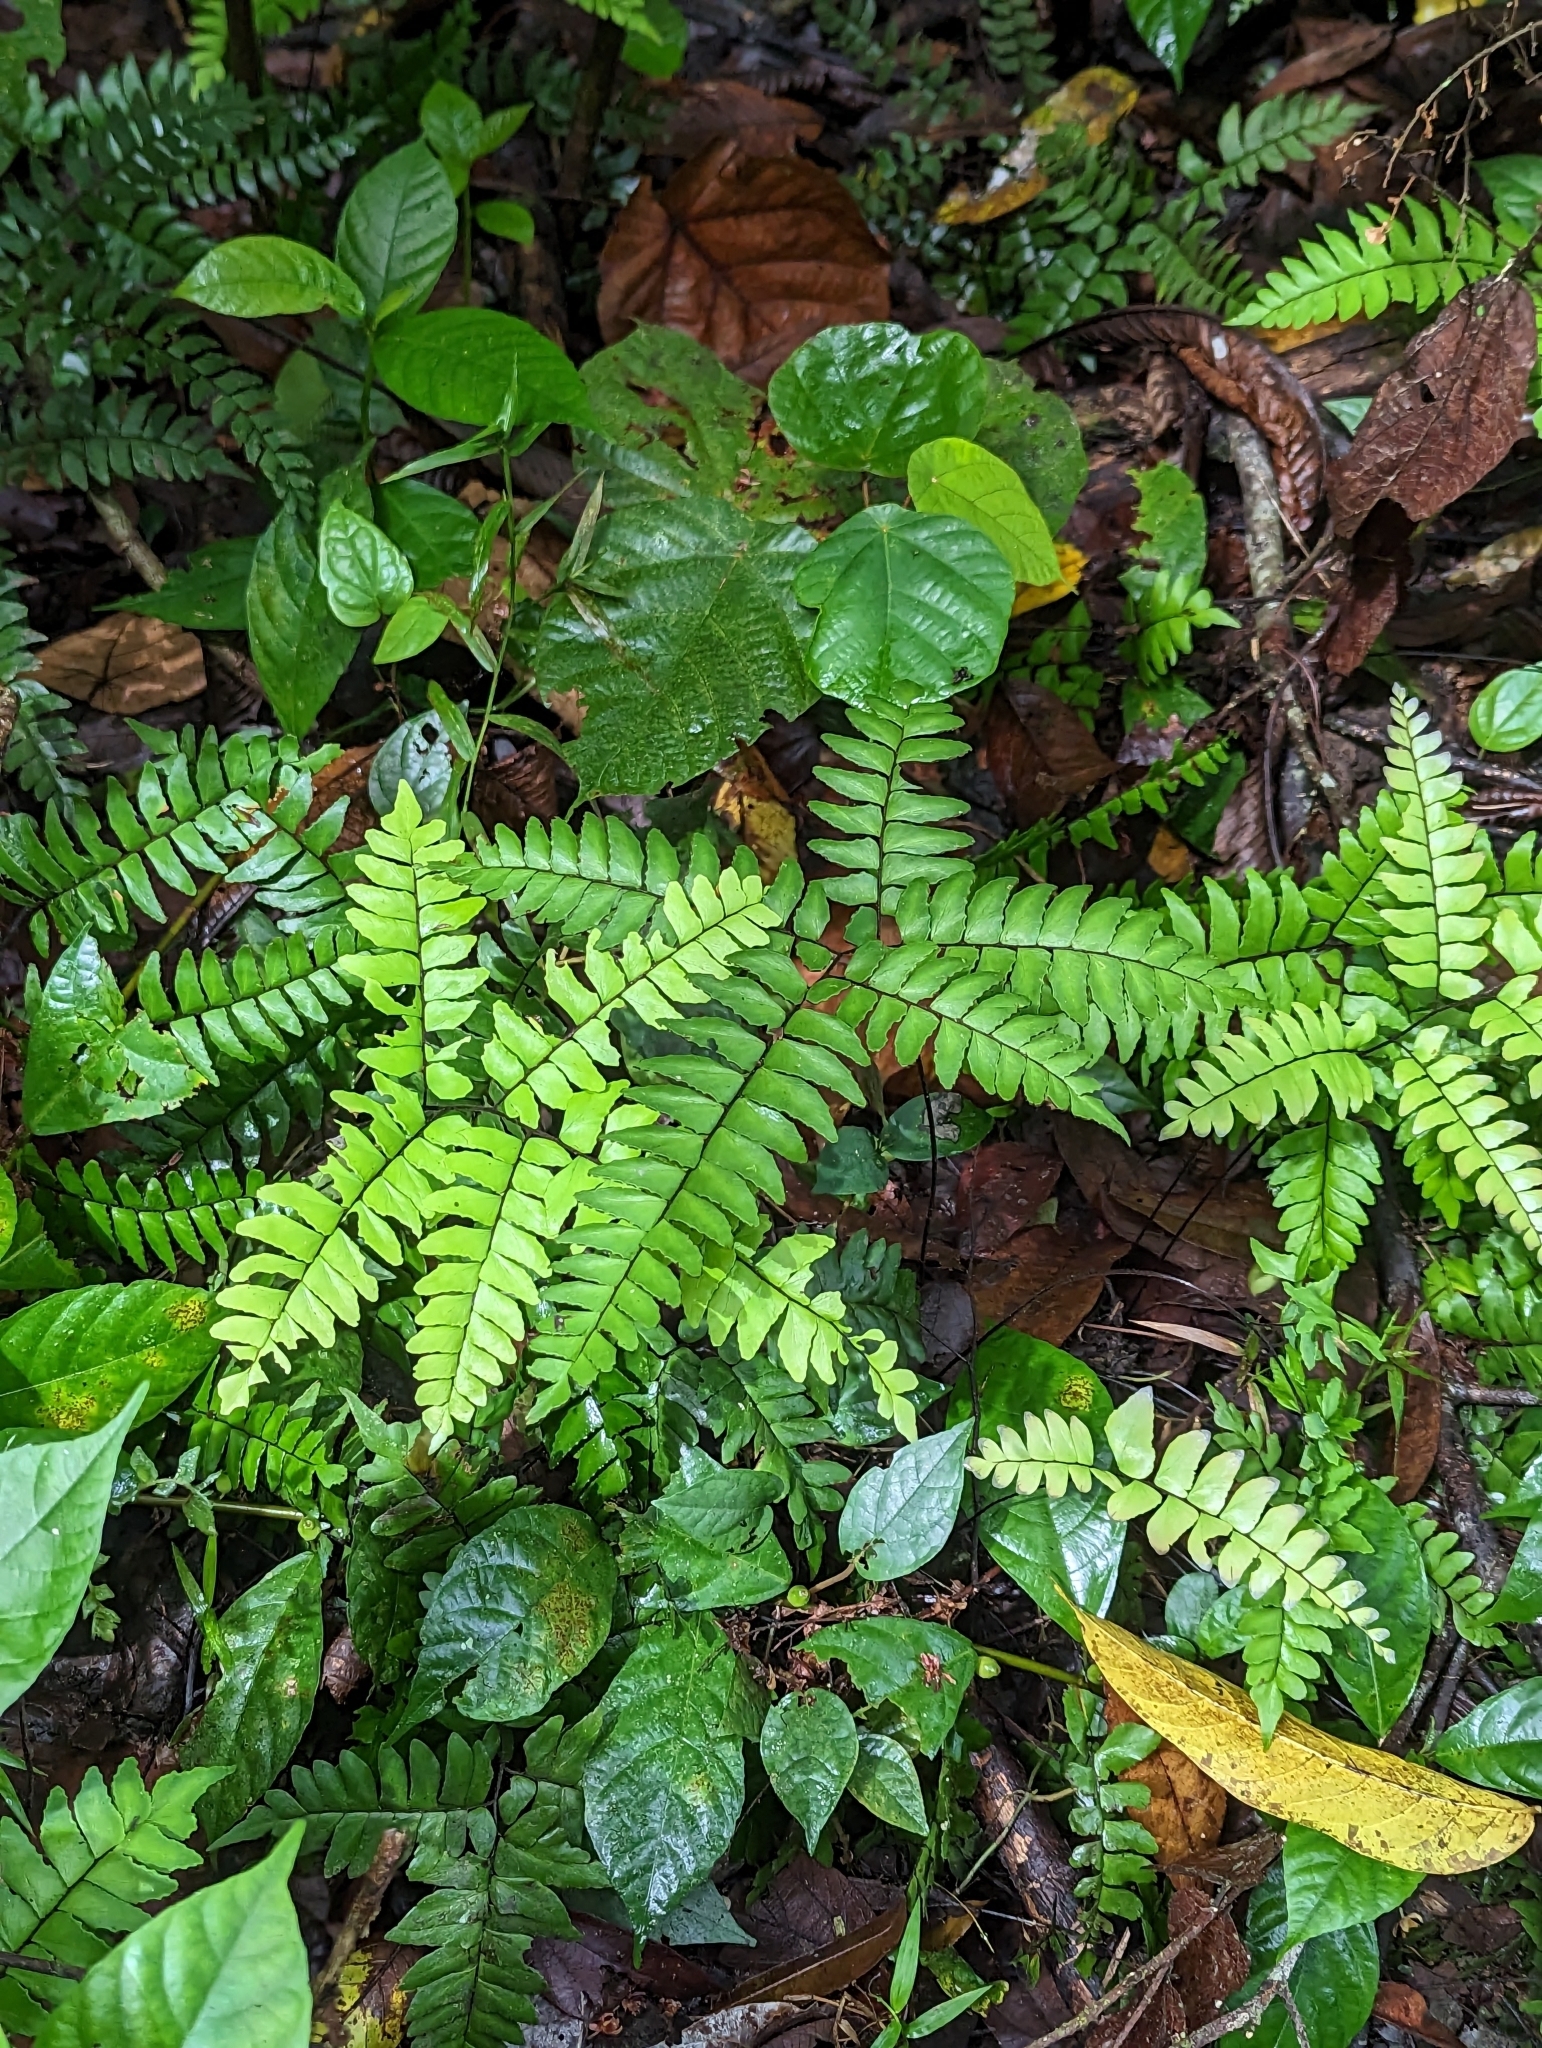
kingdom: Plantae
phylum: Tracheophyta
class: Polypodiopsida
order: Polypodiales
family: Pteridaceae
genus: Adiantum
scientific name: Adiantum latifolium
